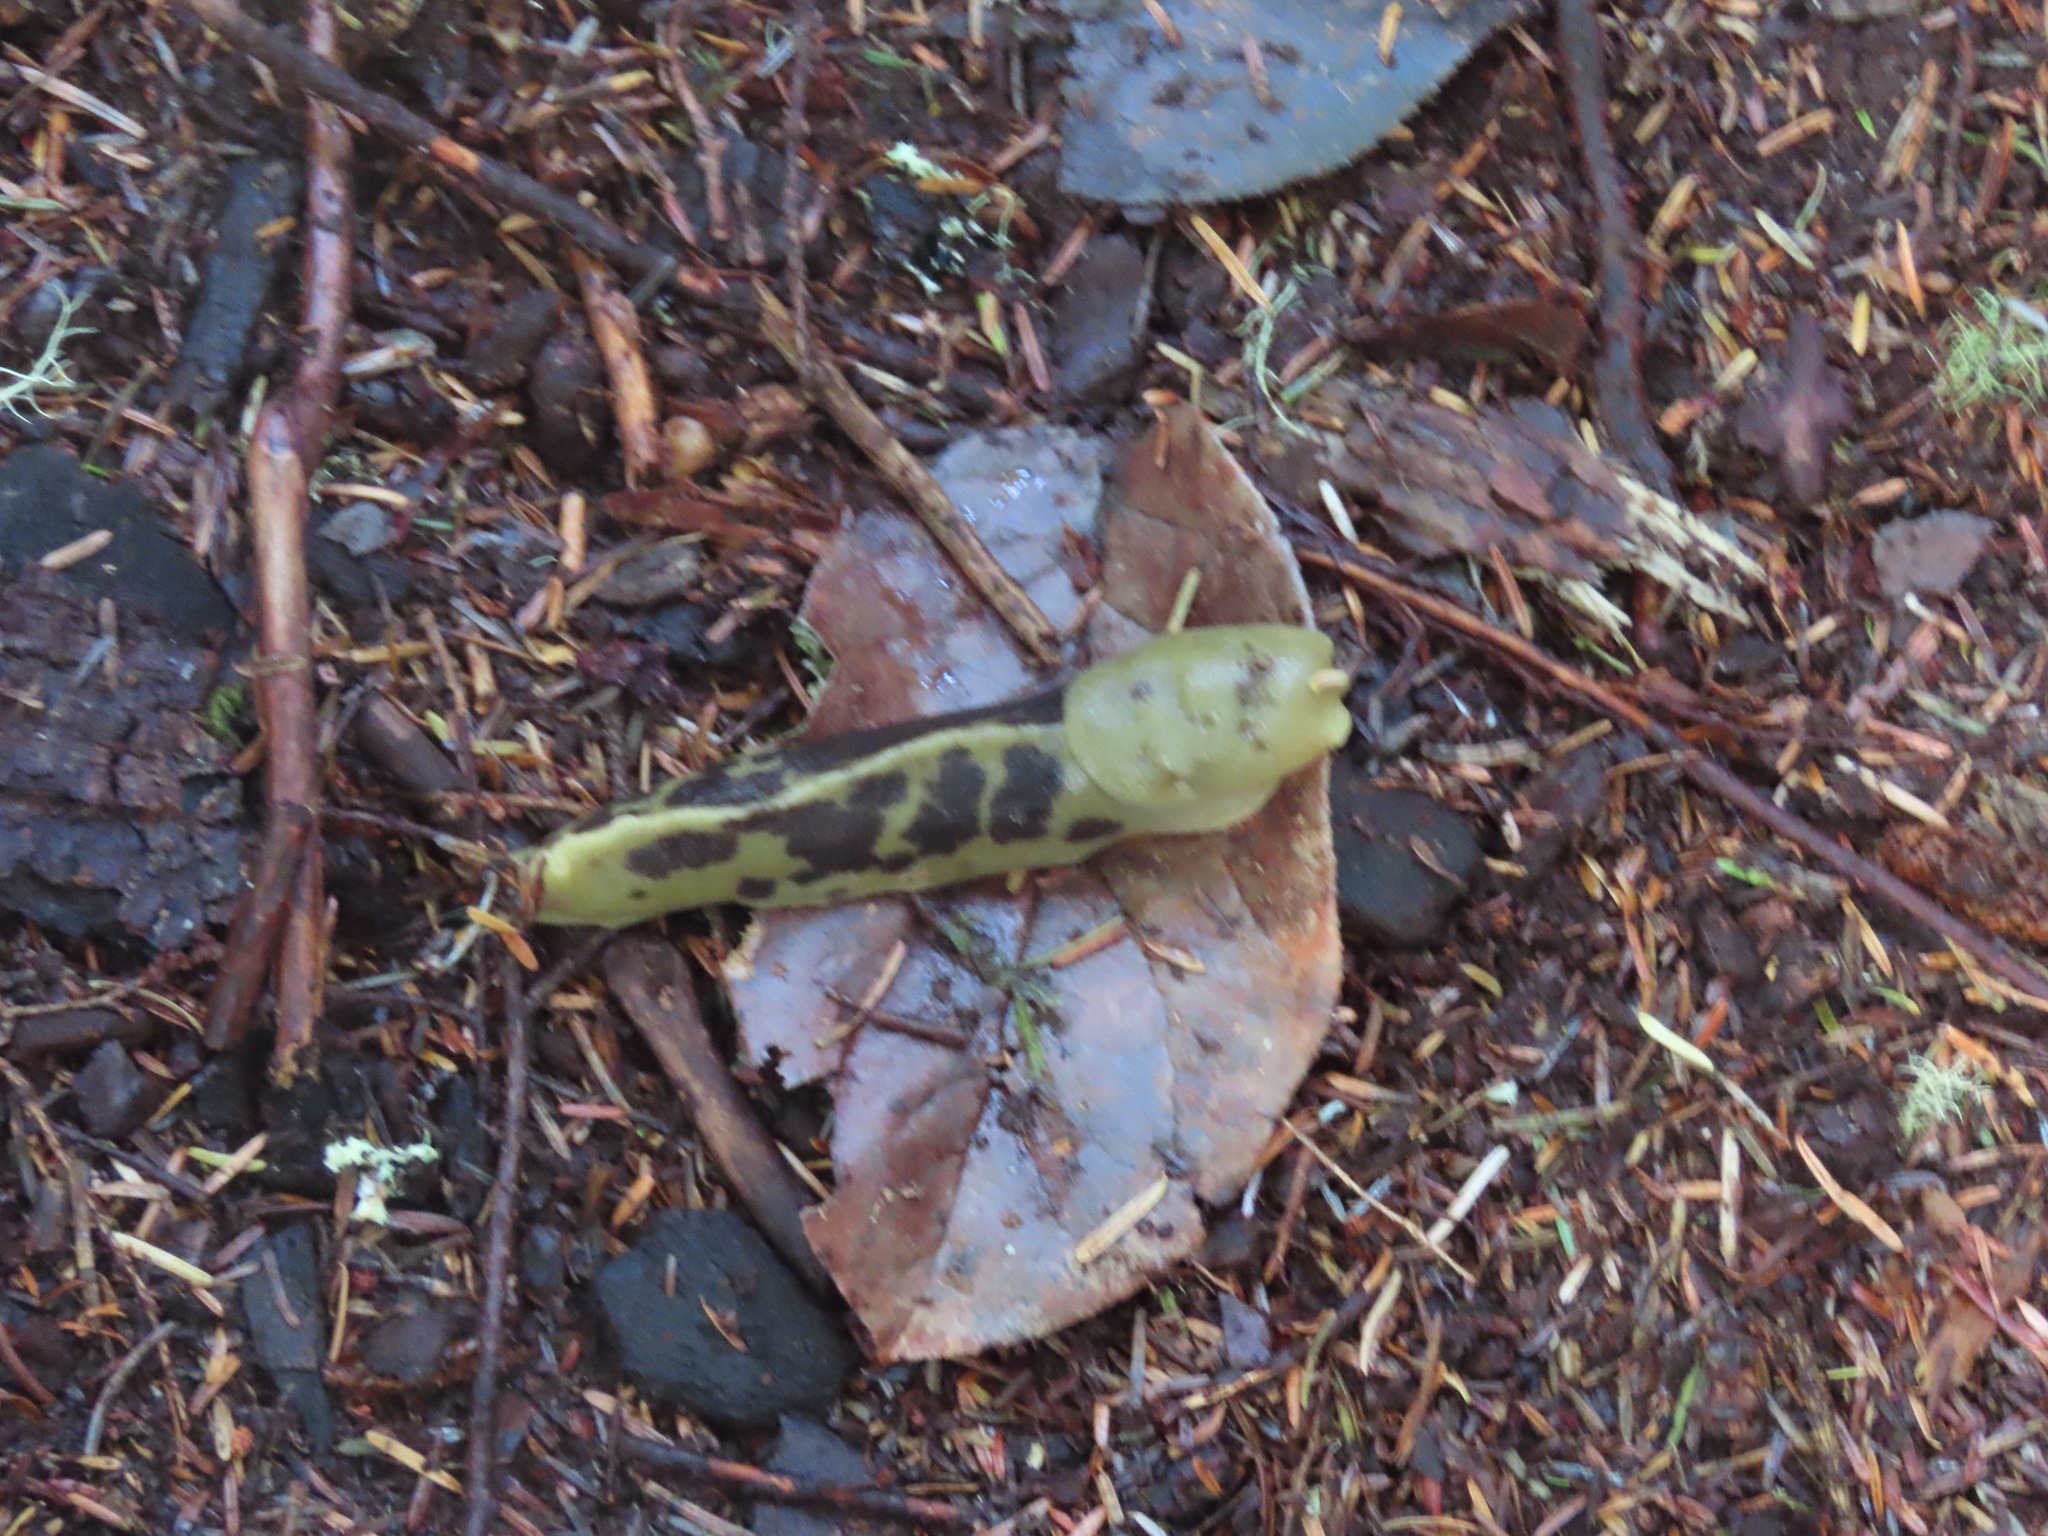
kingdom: Animalia
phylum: Mollusca
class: Gastropoda
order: Stylommatophora
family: Ariolimacidae
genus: Ariolimax
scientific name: Ariolimax columbianus
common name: Pacific banana slug
